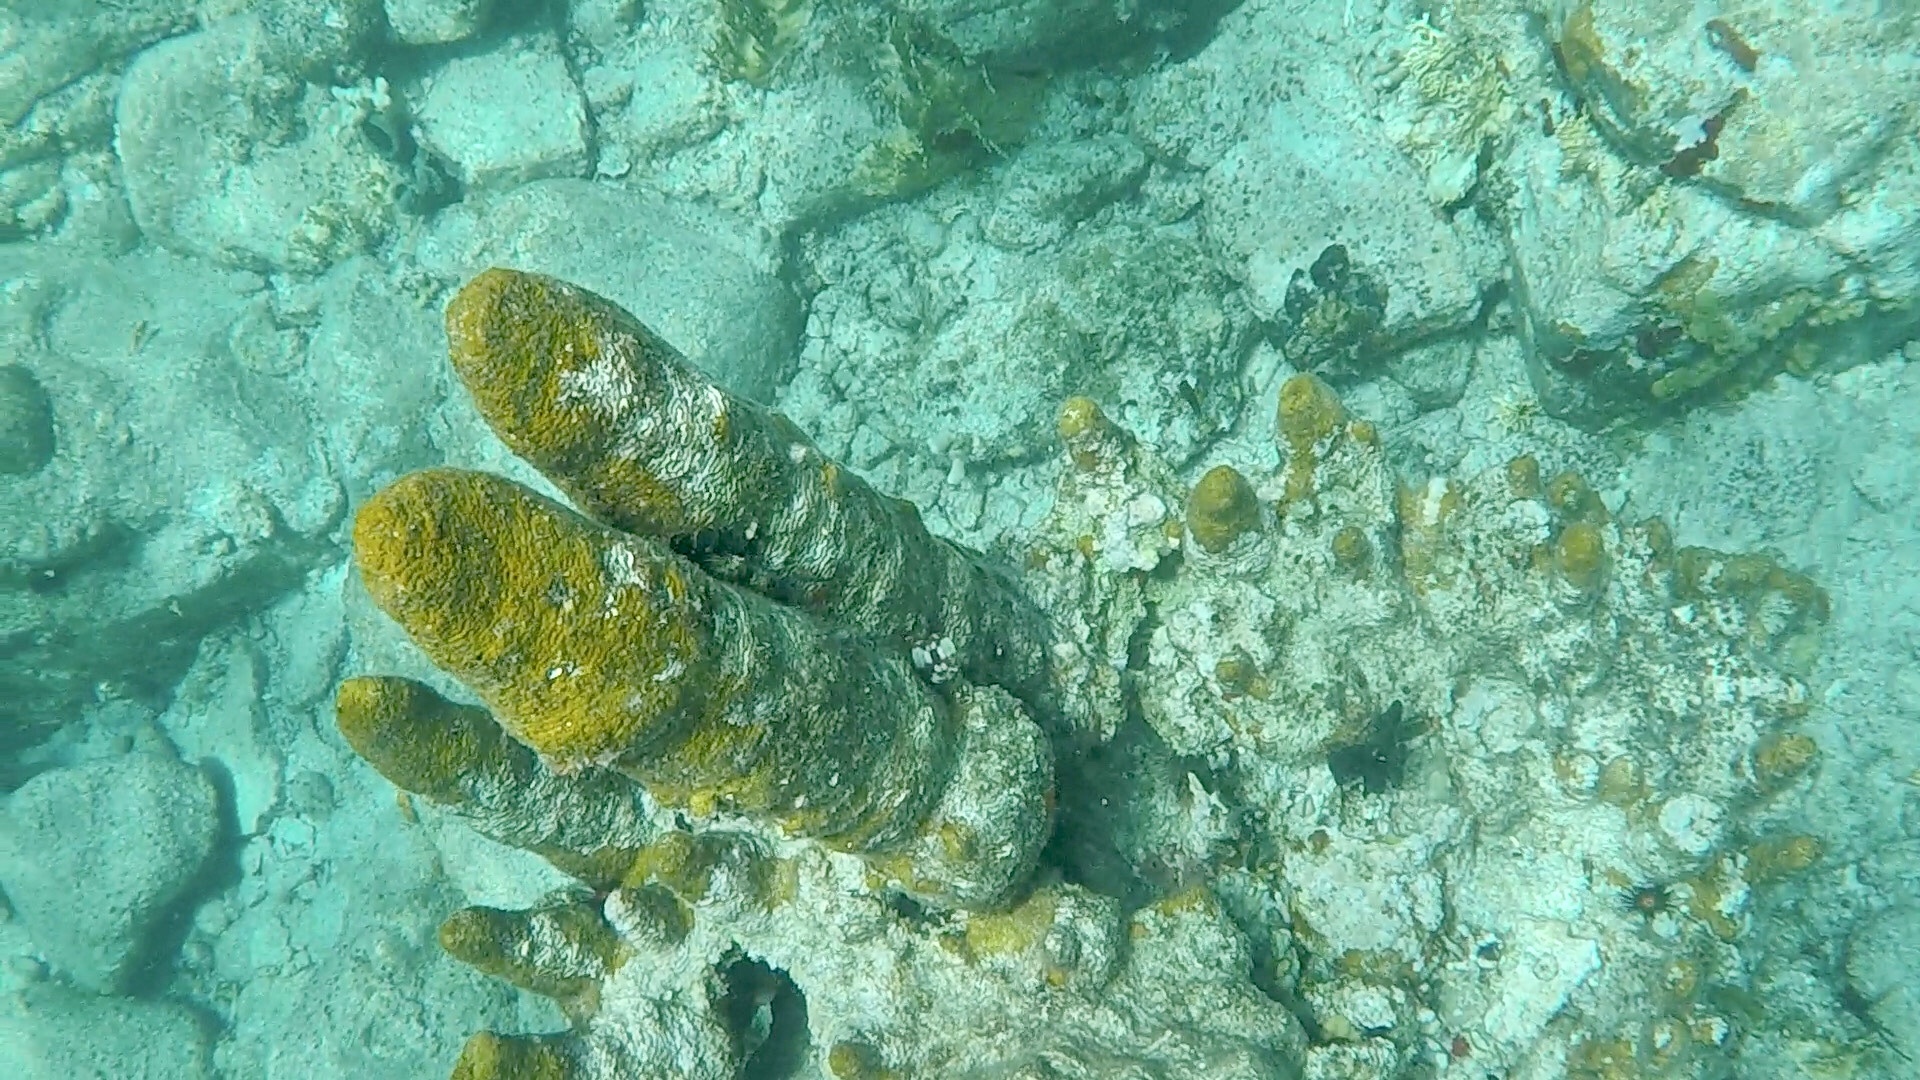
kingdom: Animalia
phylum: Cnidaria
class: Anthozoa
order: Scleractinia
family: Meandrinidae
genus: Dendrogyra
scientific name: Dendrogyra cylindrus
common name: Pillar coral
